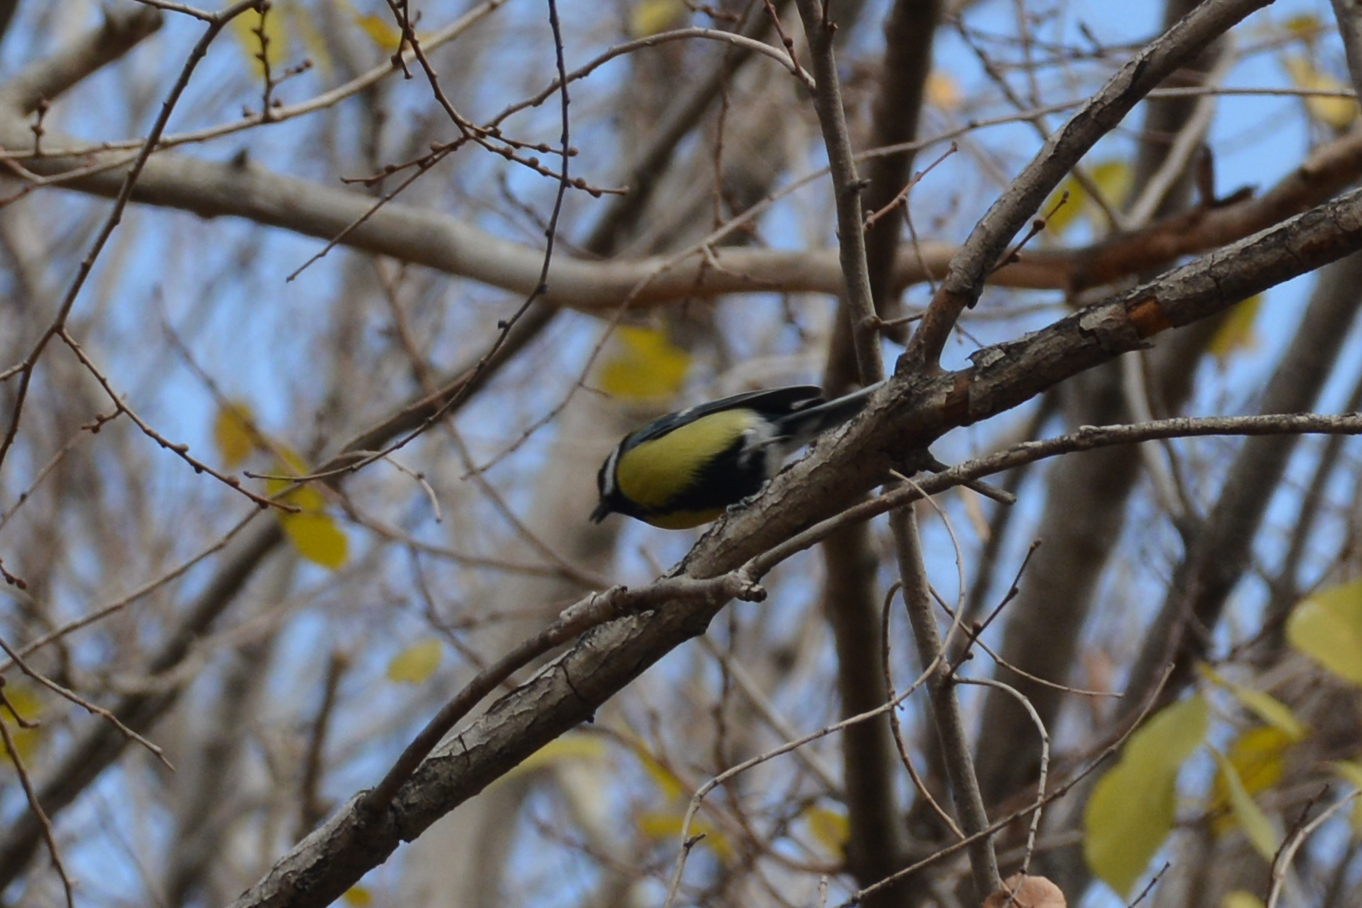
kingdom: Animalia
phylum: Chordata
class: Aves
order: Passeriformes
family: Paridae
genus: Parus
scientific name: Parus major
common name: Great tit
